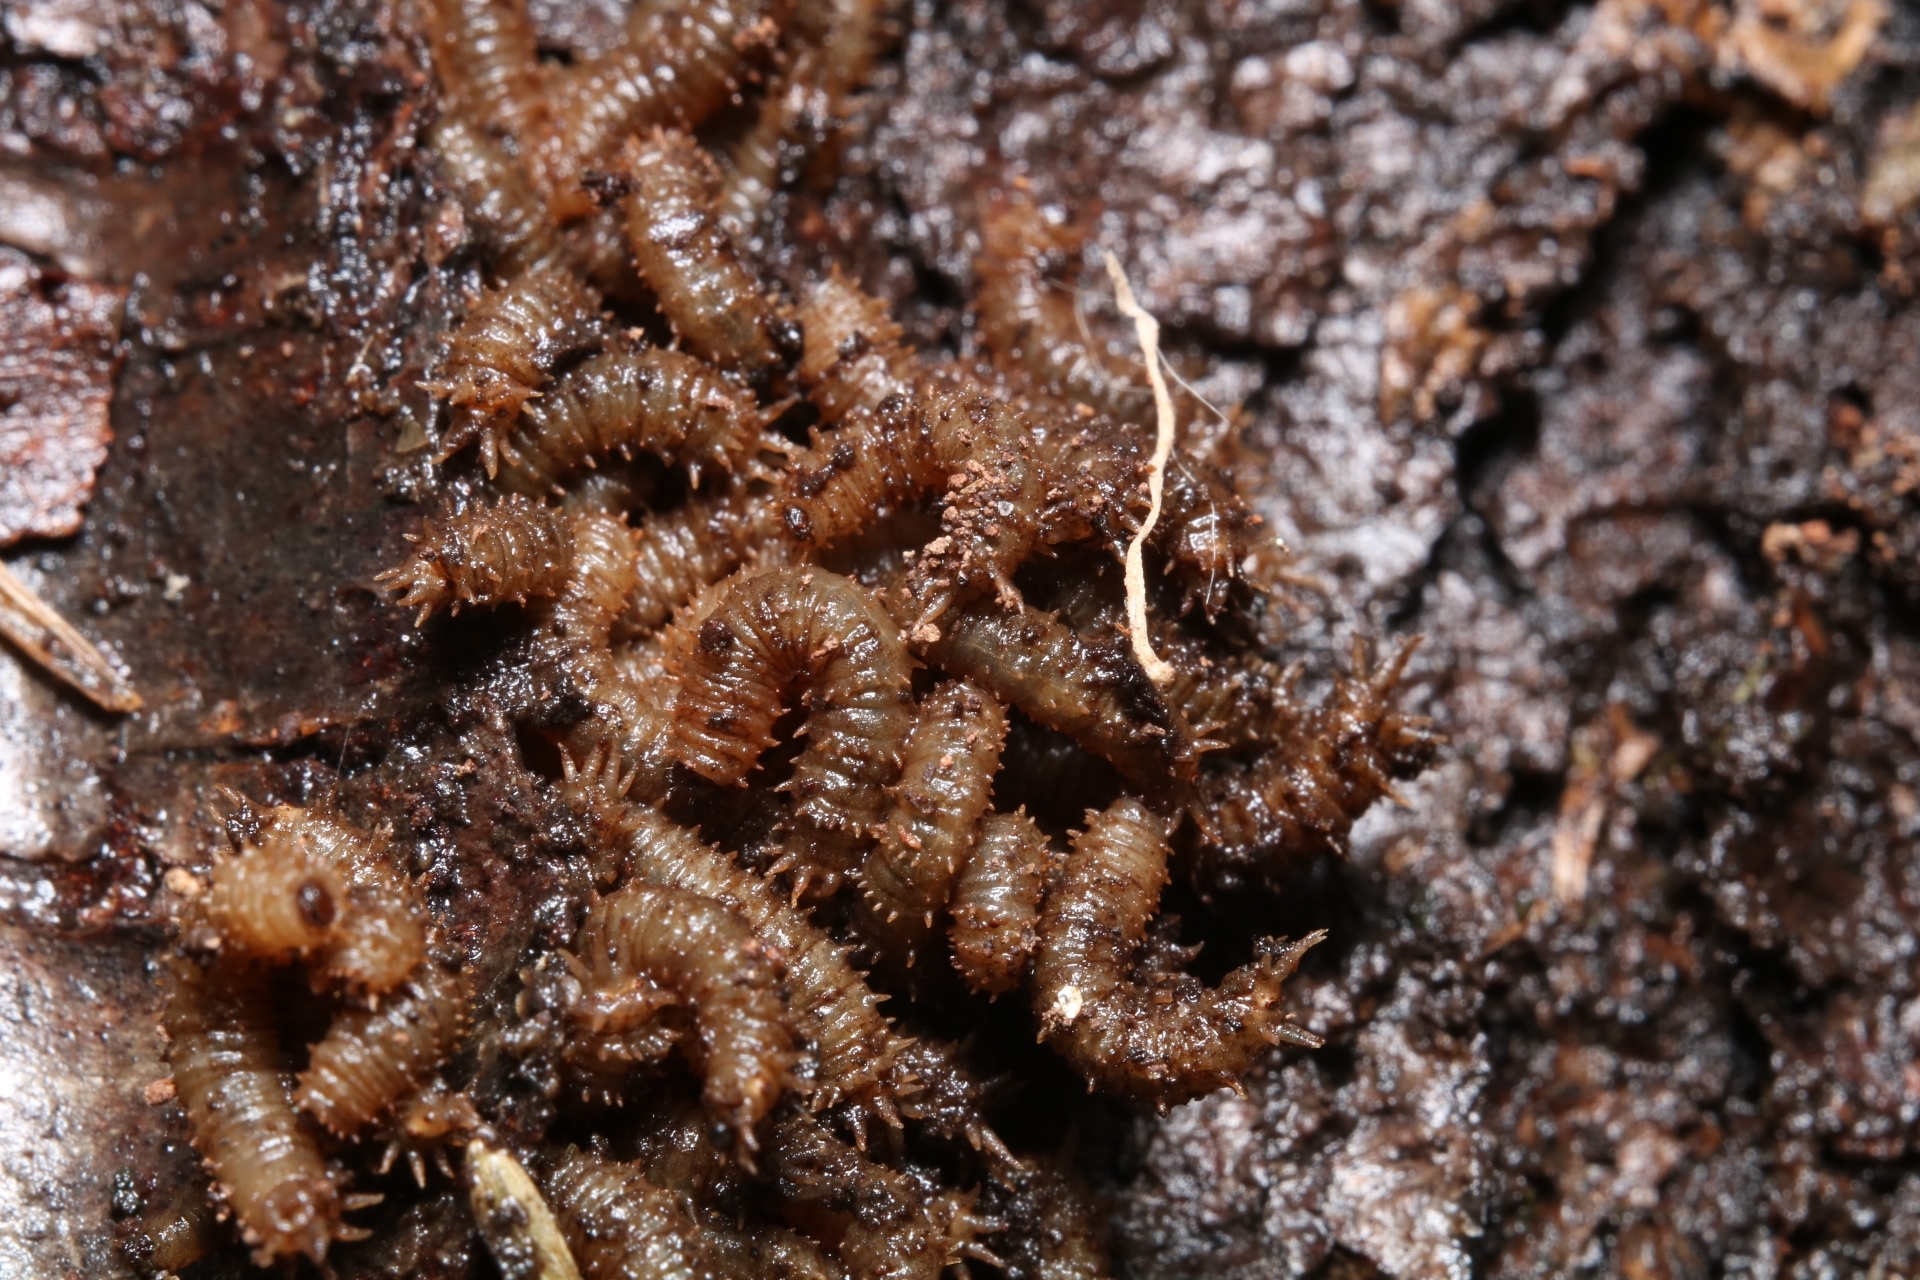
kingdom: Animalia
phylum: Arthropoda
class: Insecta
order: Diptera
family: Bibionidae
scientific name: Bibionidae
